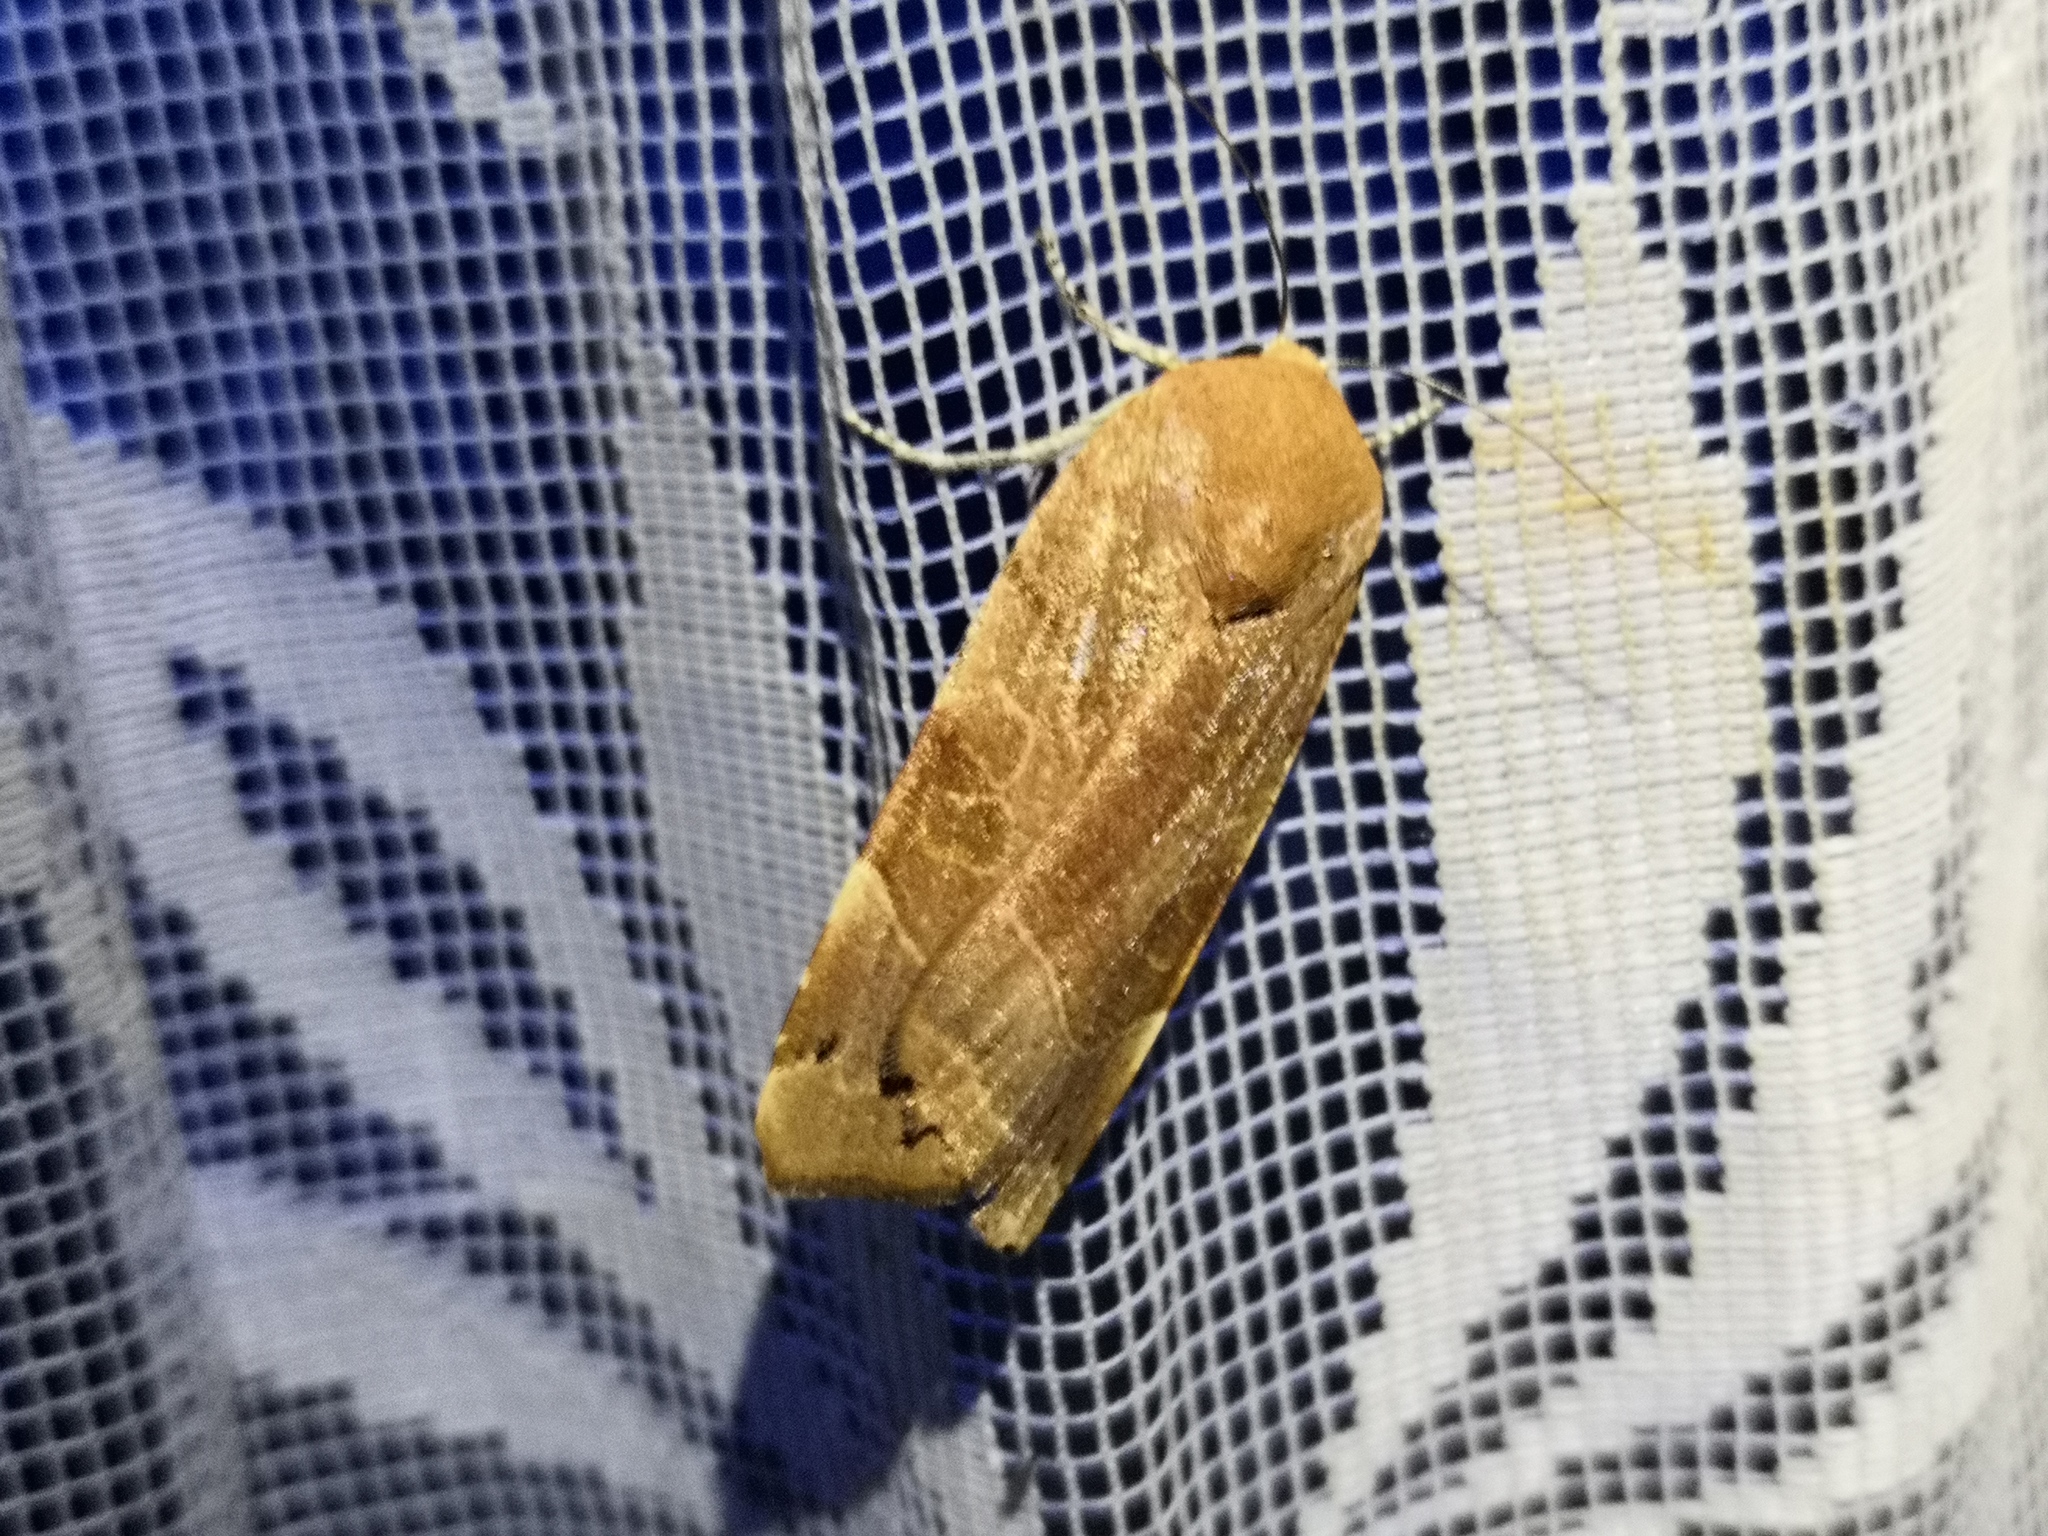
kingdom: Animalia
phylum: Arthropoda
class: Insecta
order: Lepidoptera
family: Noctuidae
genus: Noctua
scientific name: Noctua fimbriata
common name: Broad-bordered yellow underwing
